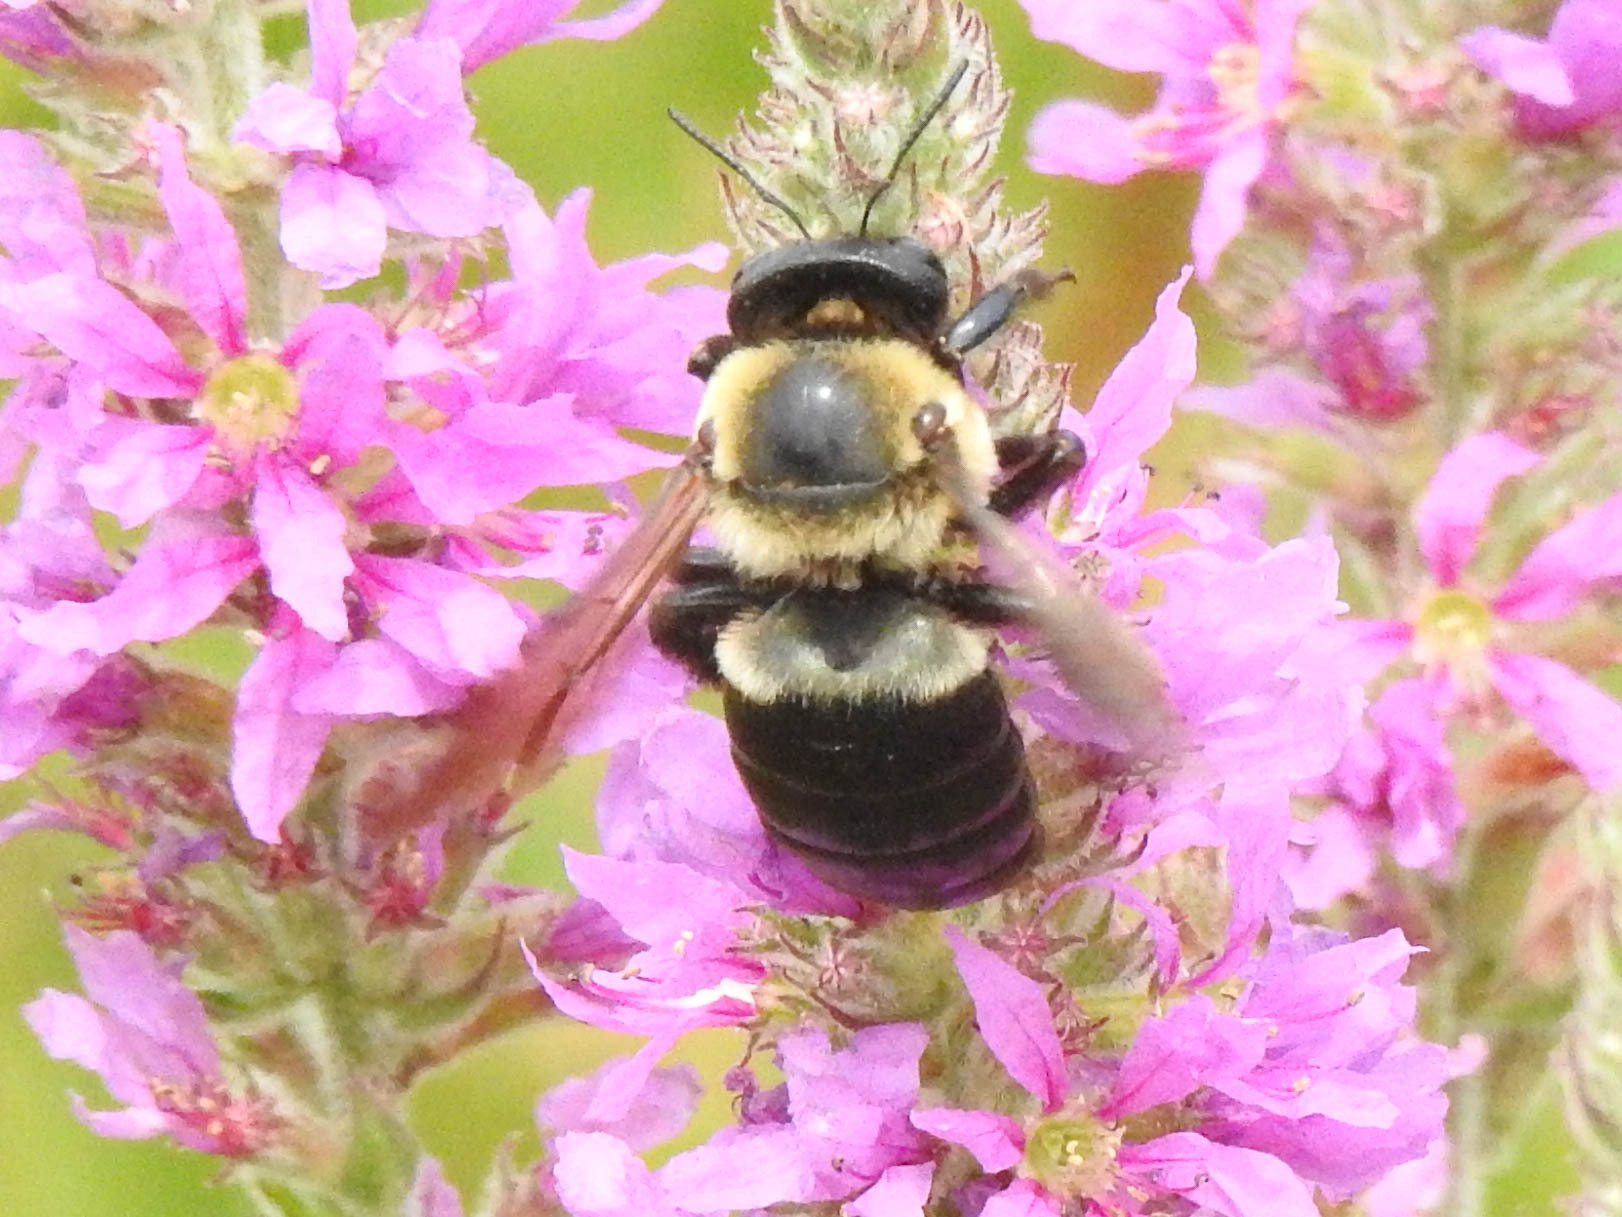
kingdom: Animalia
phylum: Arthropoda
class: Insecta
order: Hymenoptera
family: Apidae
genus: Xylocopa
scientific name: Xylocopa virginica
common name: Carpenter bee
